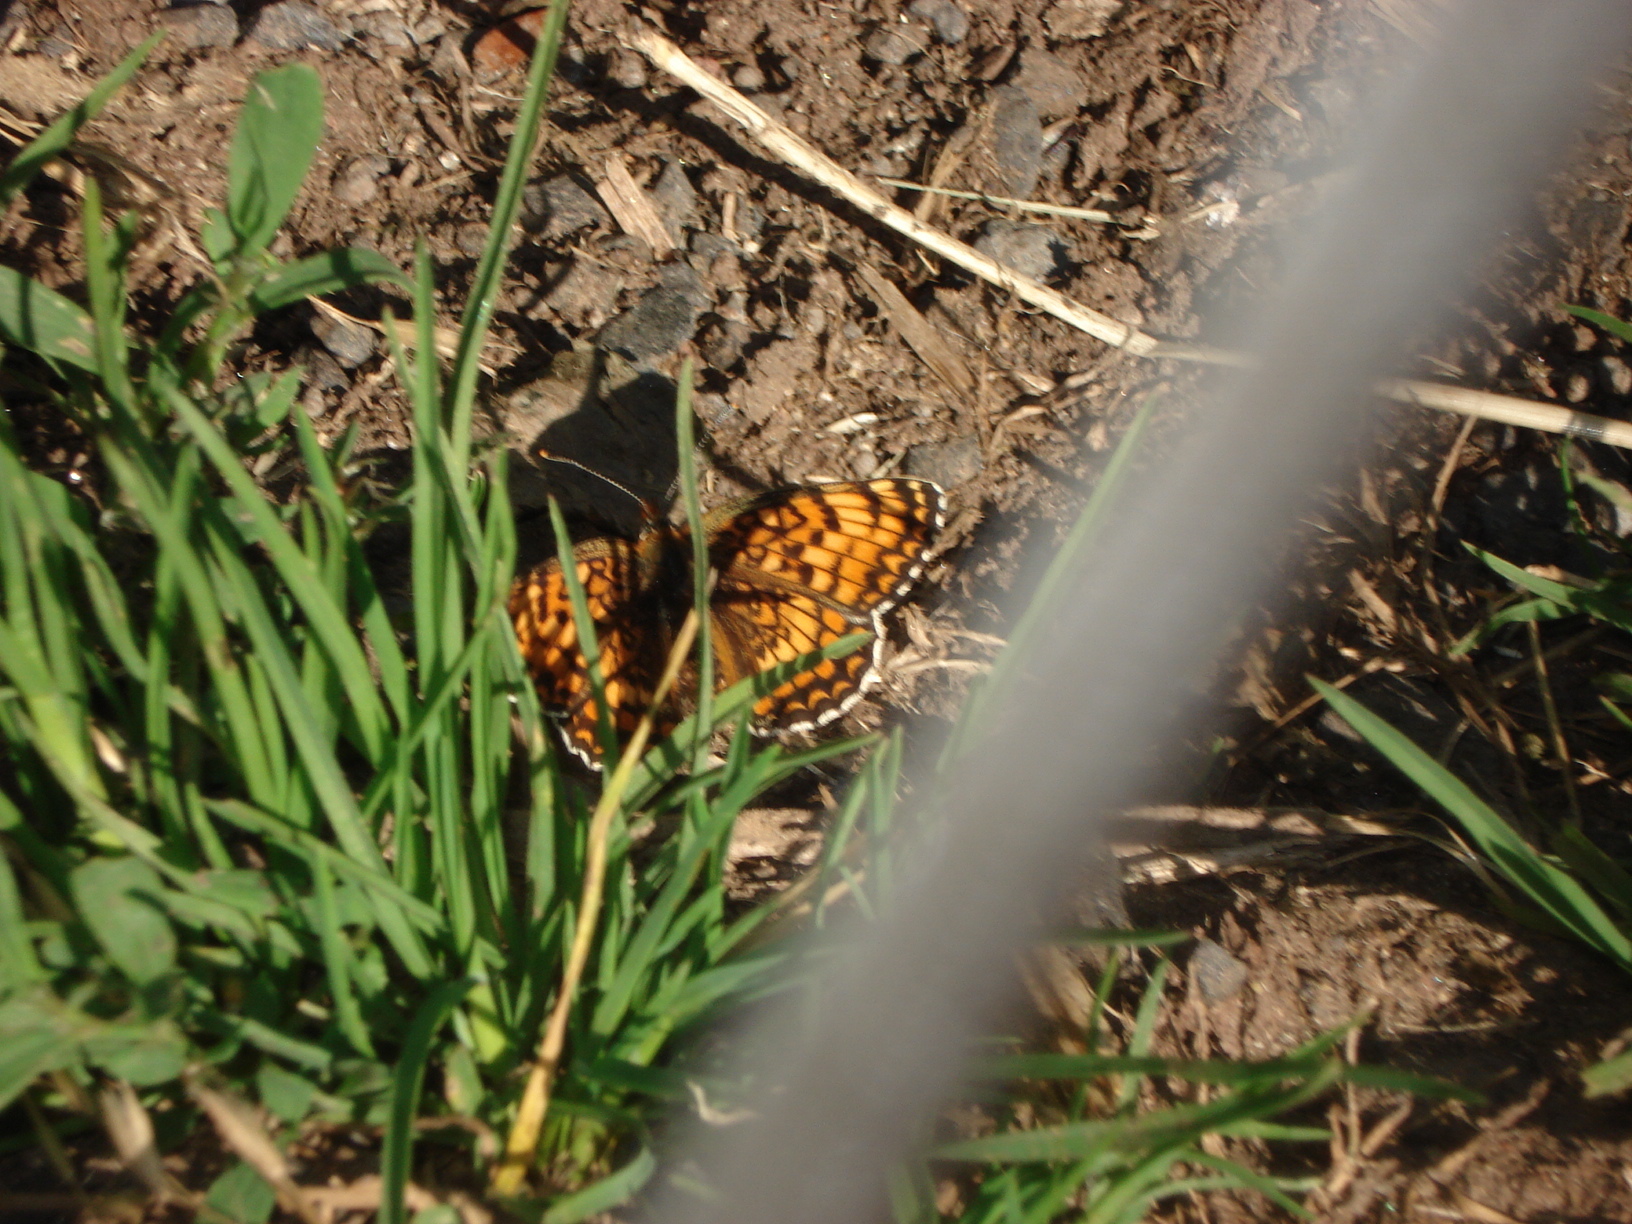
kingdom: Animalia
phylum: Arthropoda
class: Insecta
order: Lepidoptera
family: Nymphalidae
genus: Melitaea
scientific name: Melitaea phoebe
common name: Knapweed fritillary
